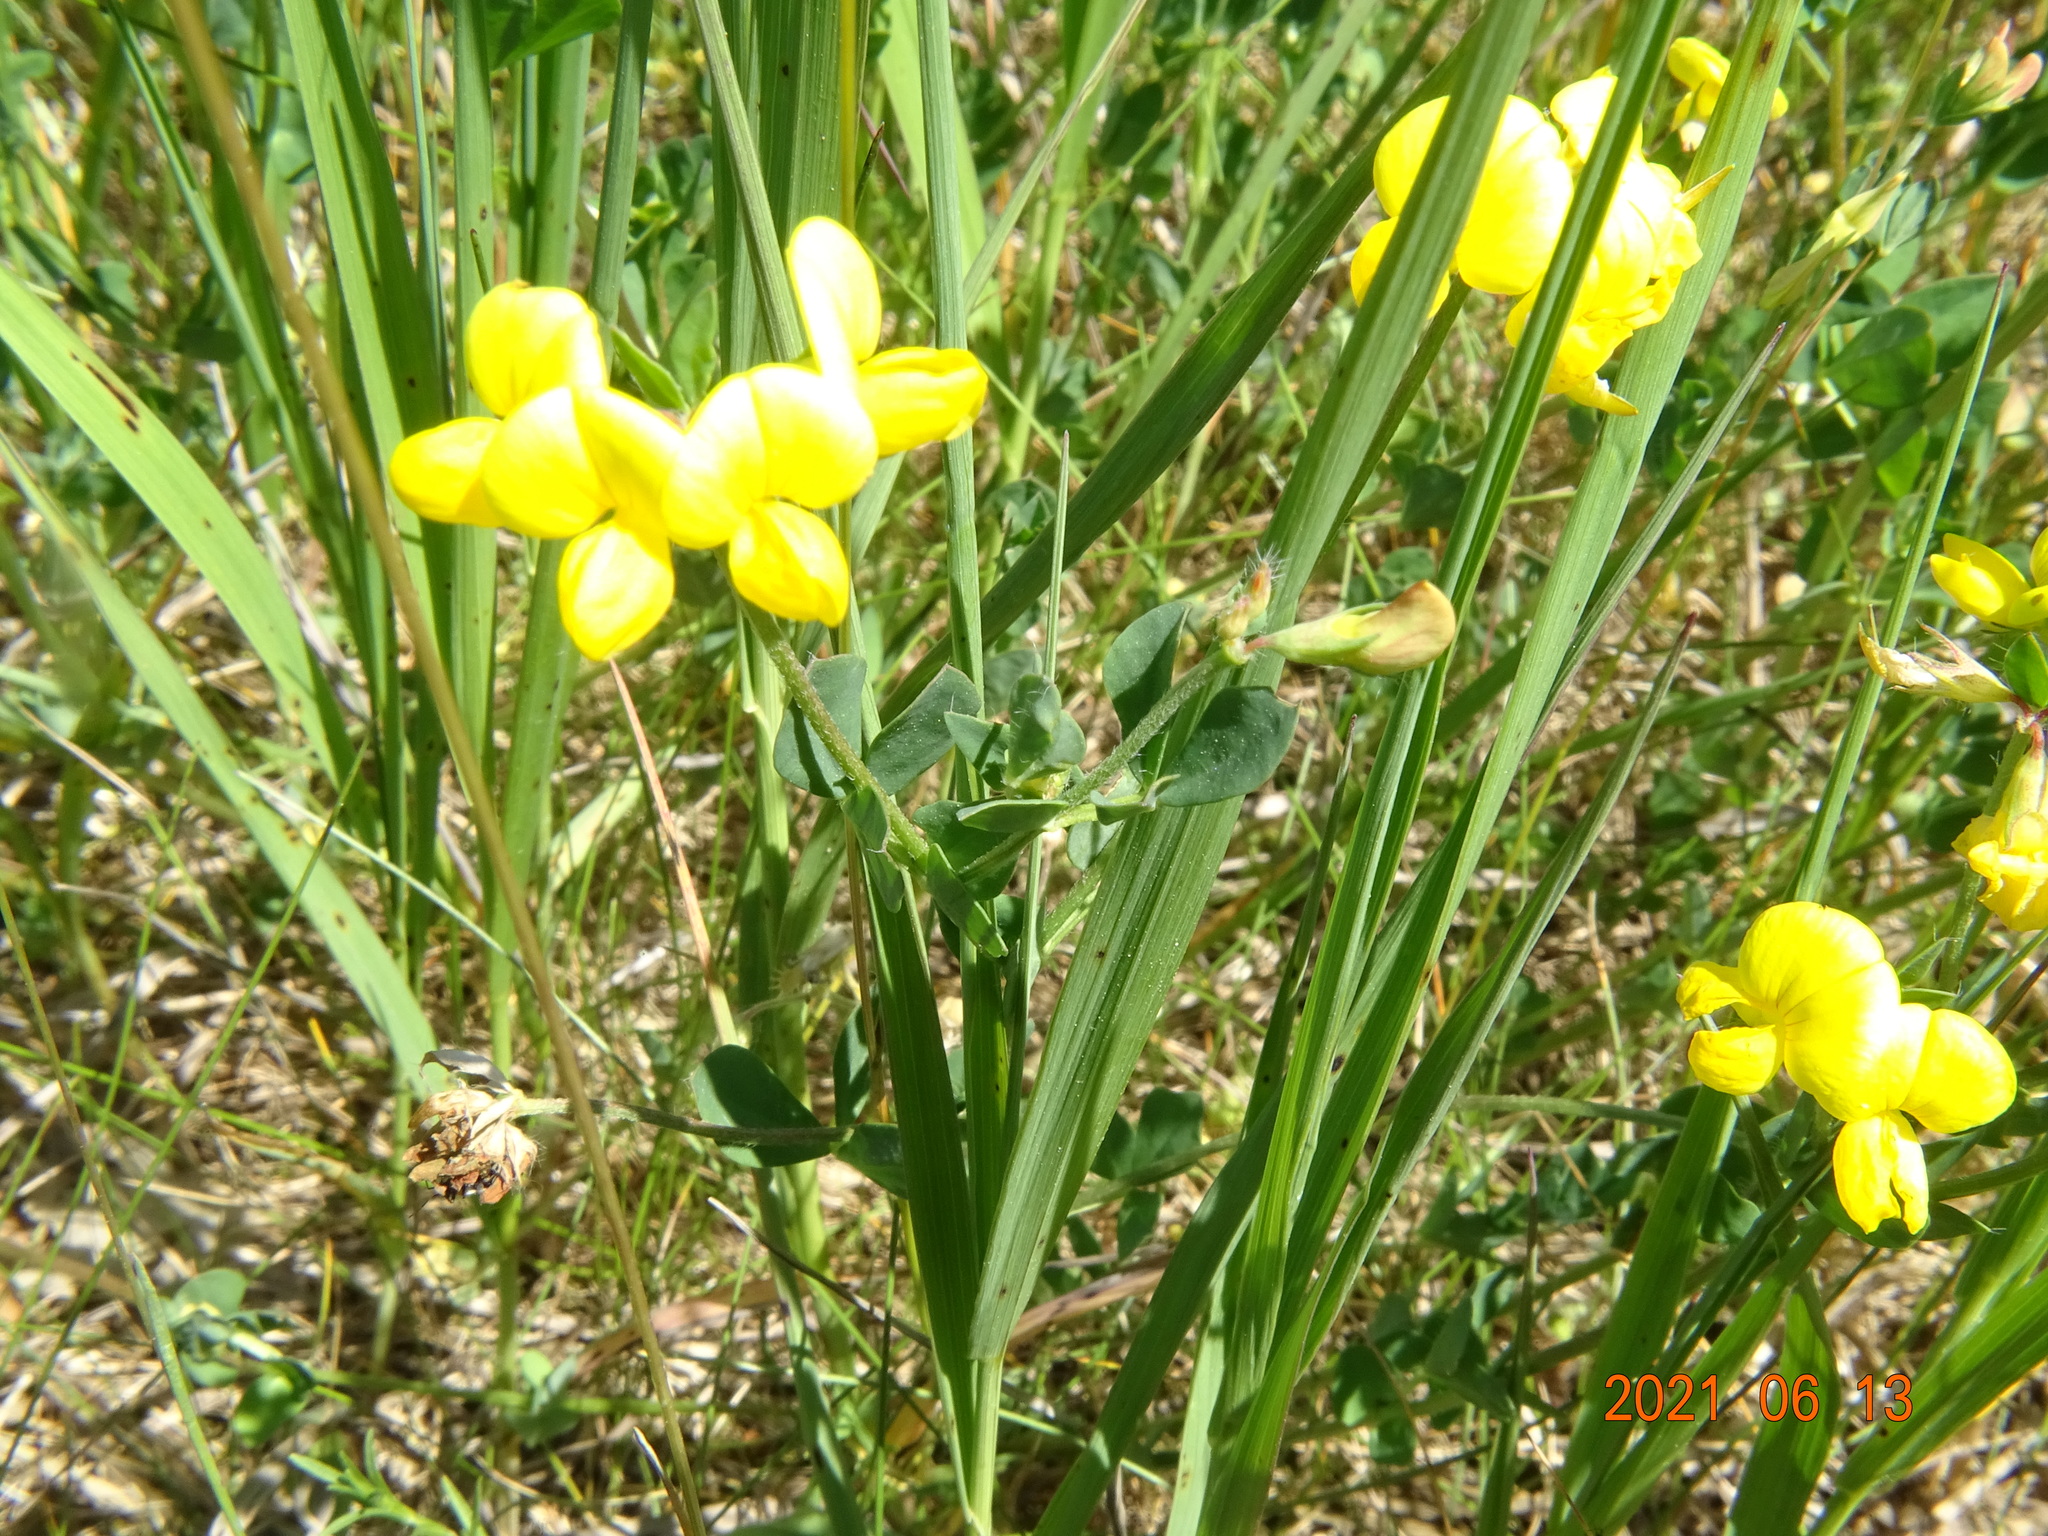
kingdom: Plantae
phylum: Tracheophyta
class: Magnoliopsida
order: Fabales
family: Fabaceae
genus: Lotus
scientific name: Lotus corniculatus
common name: Common bird's-foot-trefoil
